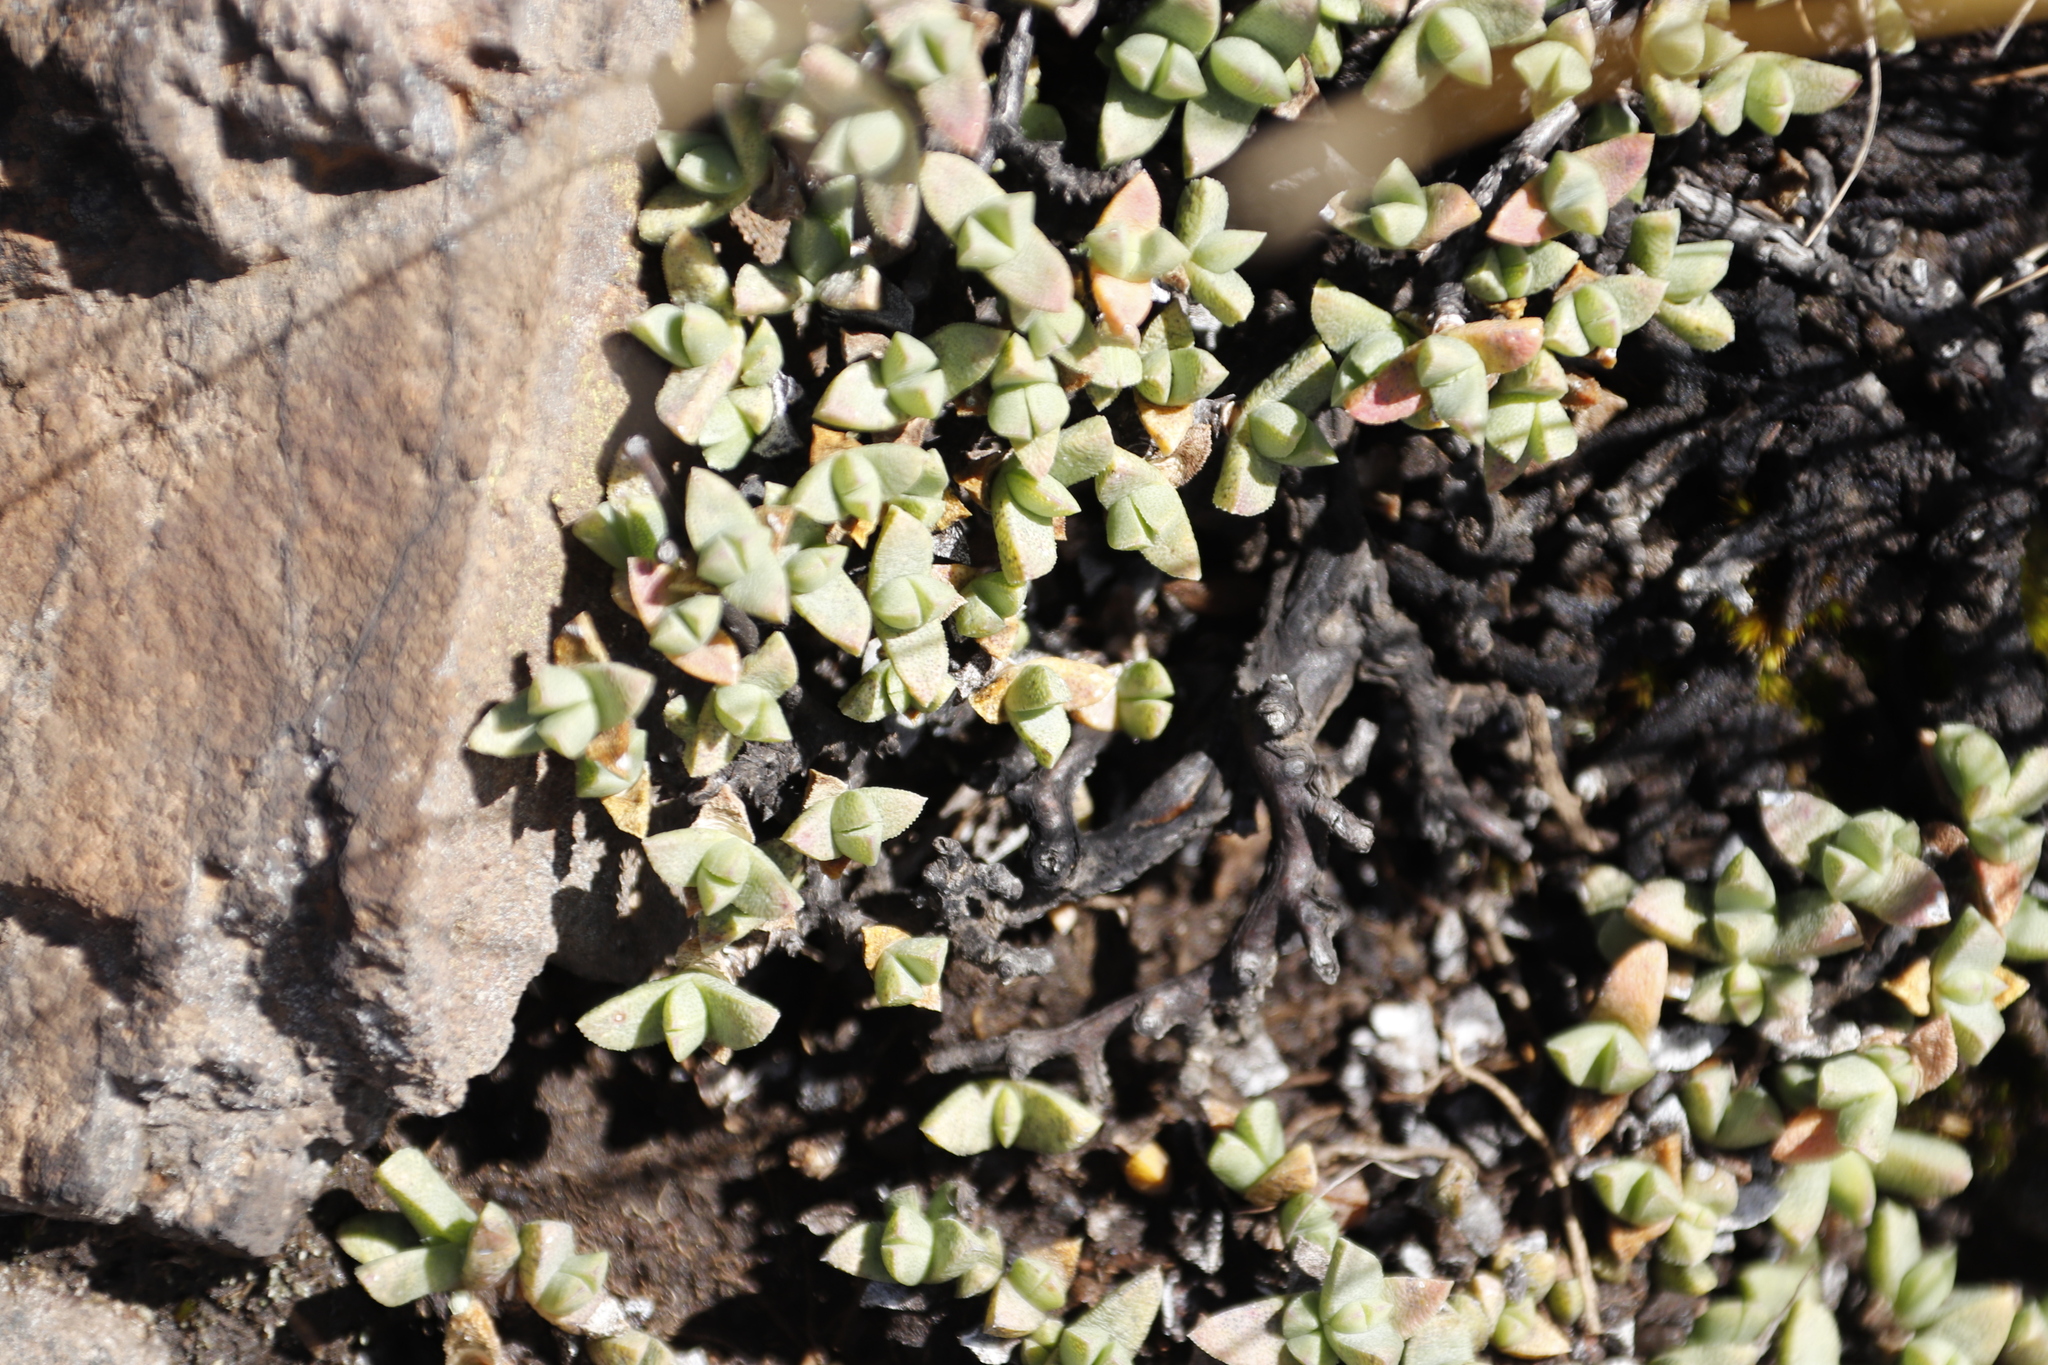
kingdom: Plantae
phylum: Tracheophyta
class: Magnoliopsida
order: Caryophyllales
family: Aizoaceae
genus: Ruschia
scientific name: Ruschia putterillii
